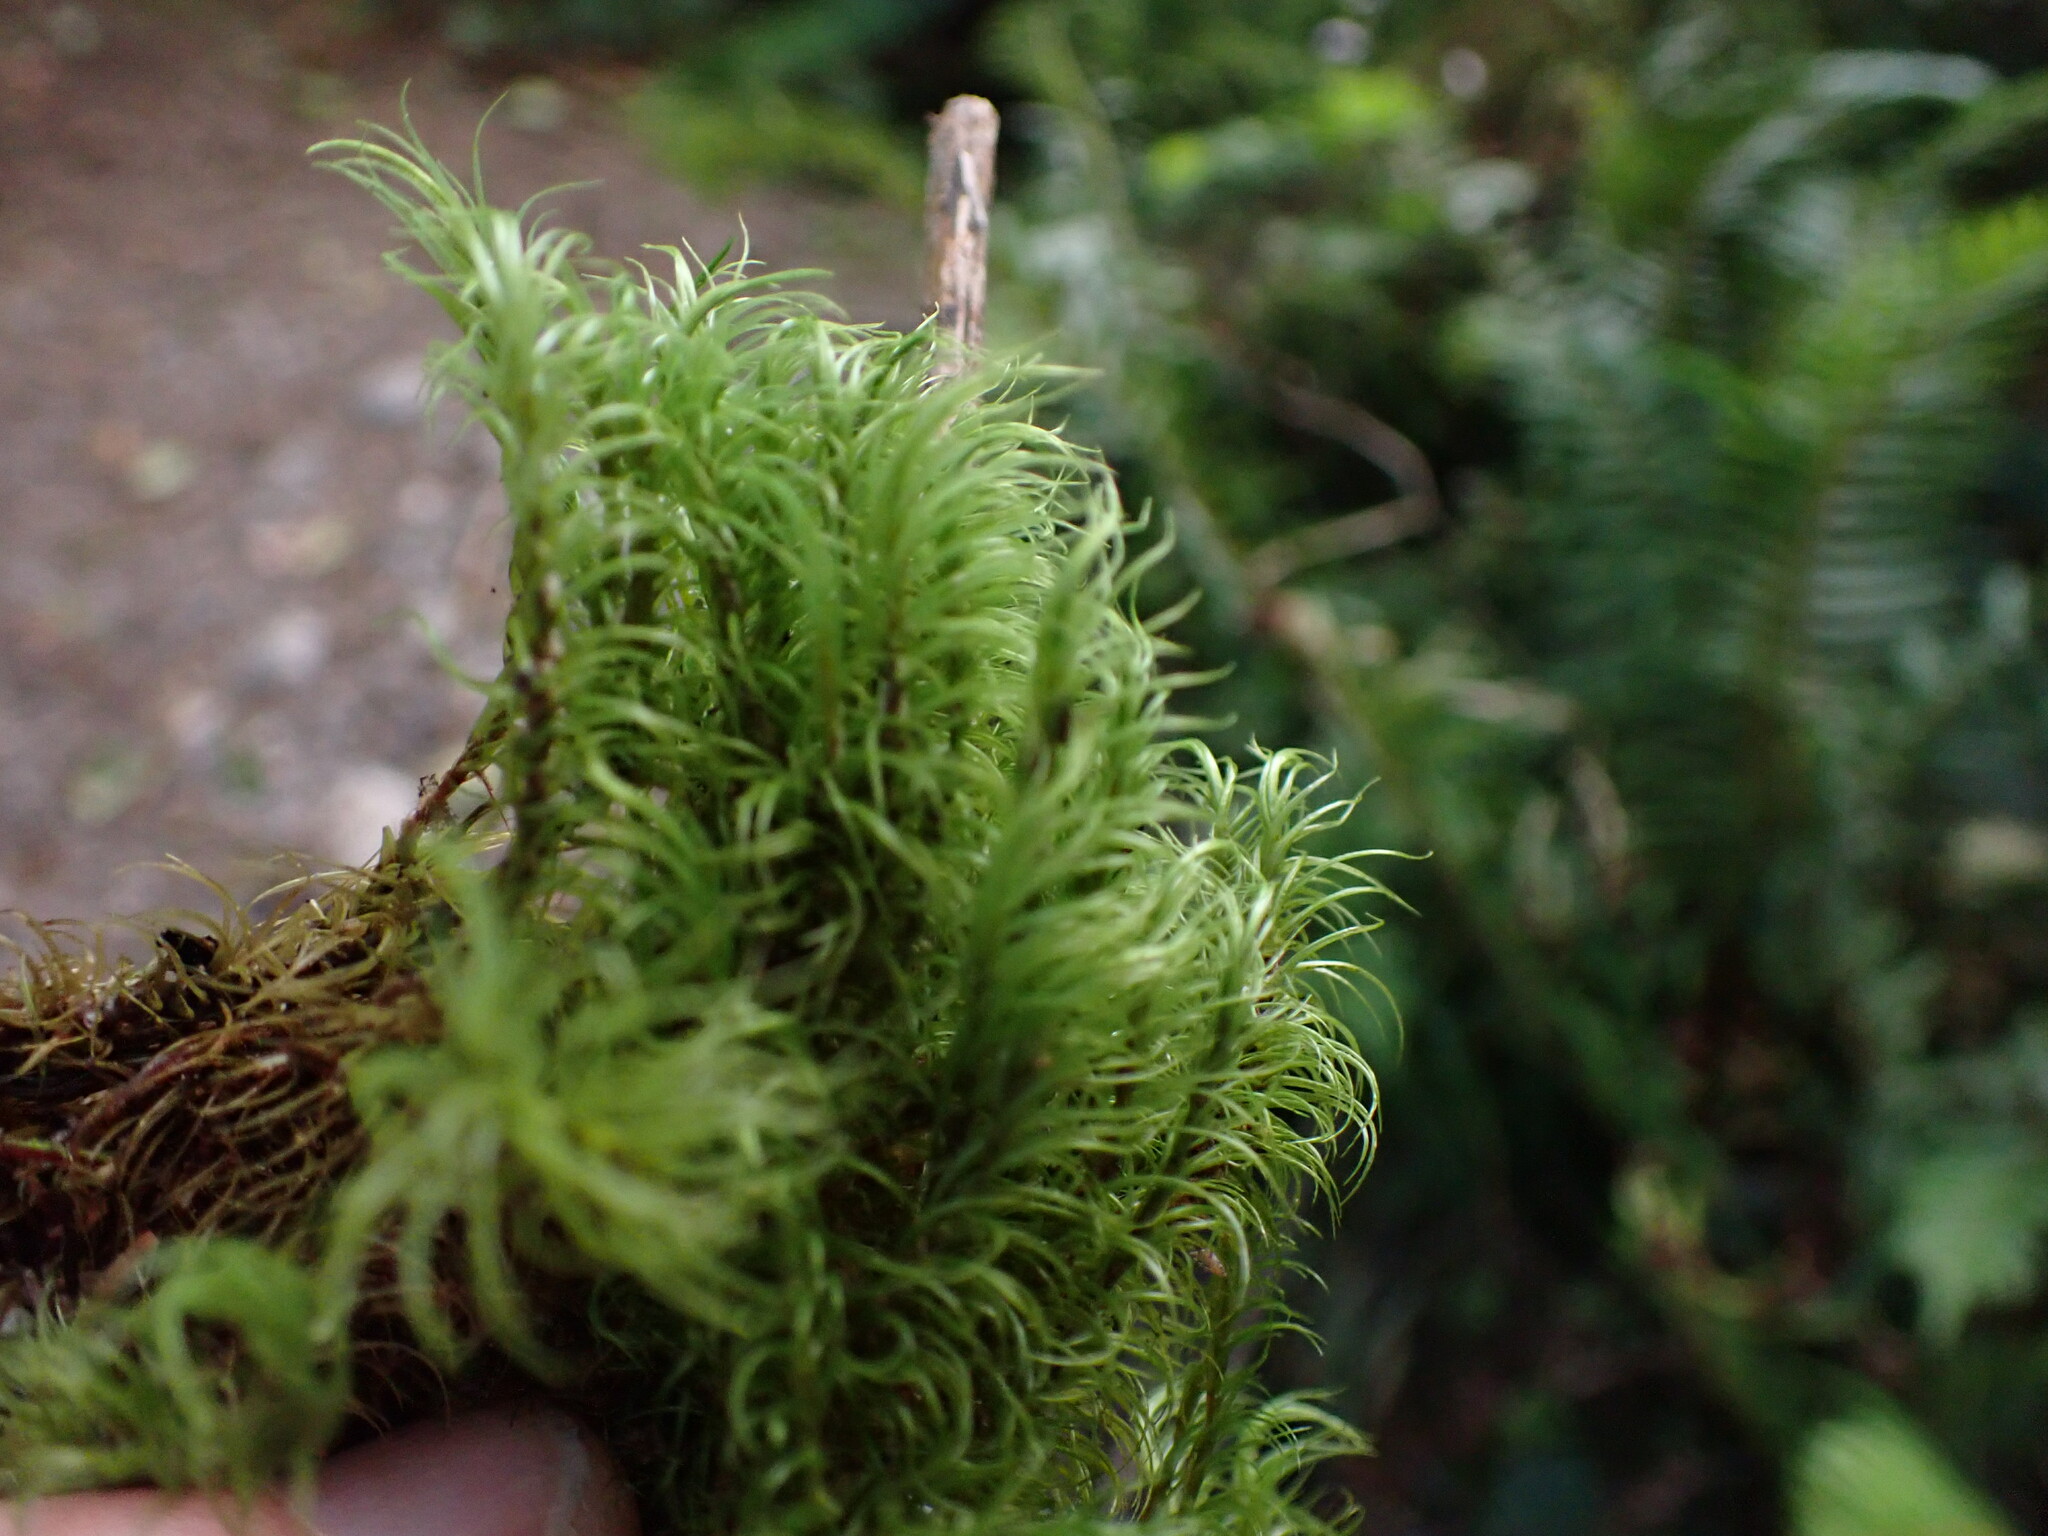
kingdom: Plantae
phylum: Bryophyta
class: Bryopsida
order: Dicranales
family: Dicranaceae
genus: Dicranum
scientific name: Dicranum fuscescens
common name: Curly heron's-bill moss
